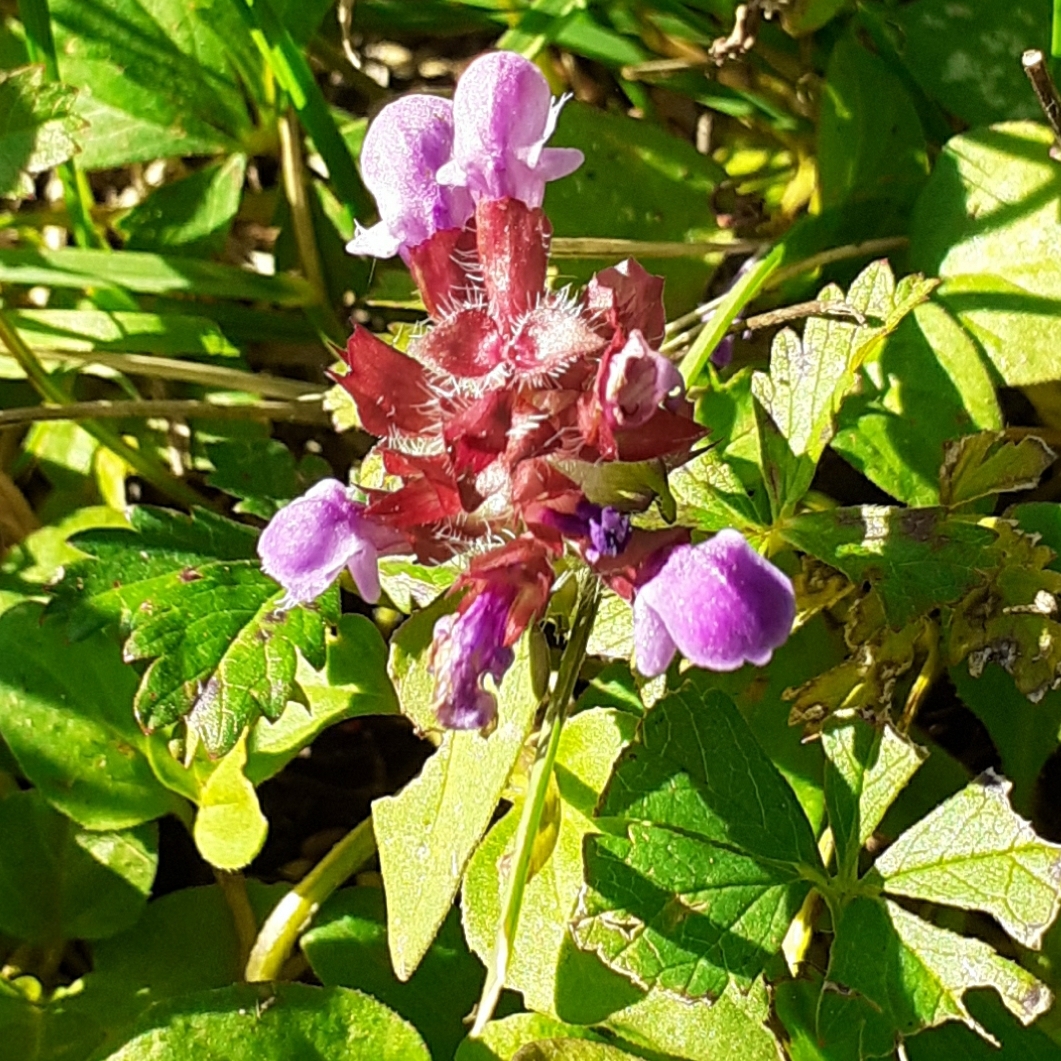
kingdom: Plantae
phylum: Tracheophyta
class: Magnoliopsida
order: Lamiales
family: Lamiaceae
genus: Prunella
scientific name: Prunella vulgaris
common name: Heal-all
